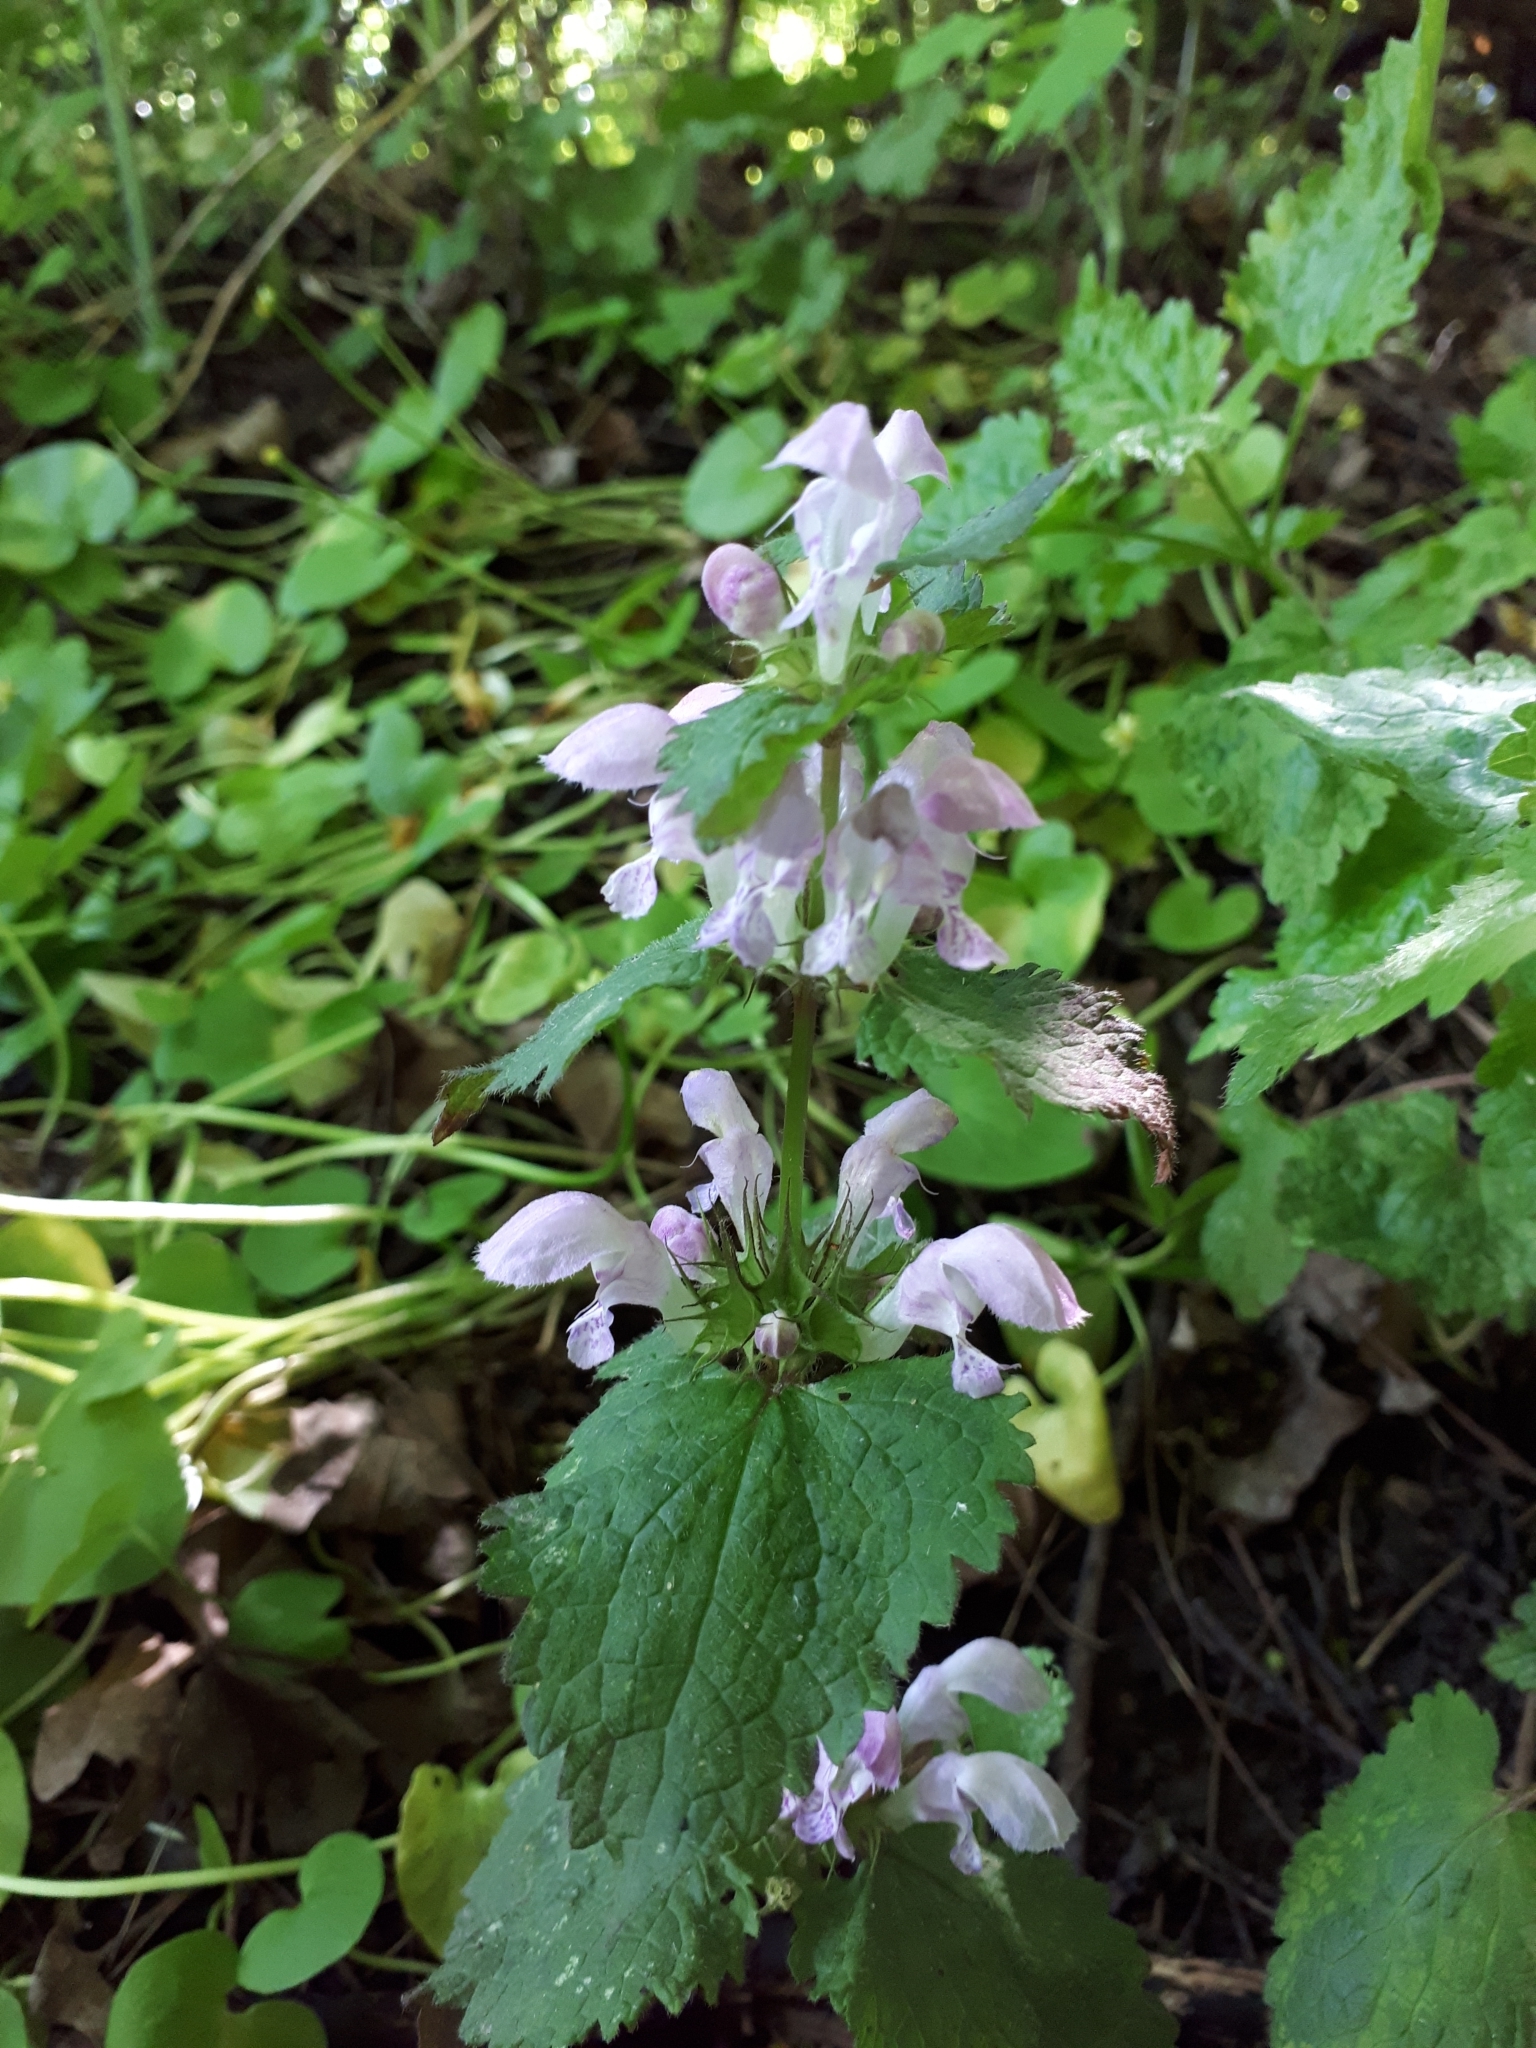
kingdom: Plantae
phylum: Tracheophyta
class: Magnoliopsida
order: Lamiales
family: Lamiaceae
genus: Lamium
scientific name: Lamium maculatum
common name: Spotted dead-nettle
